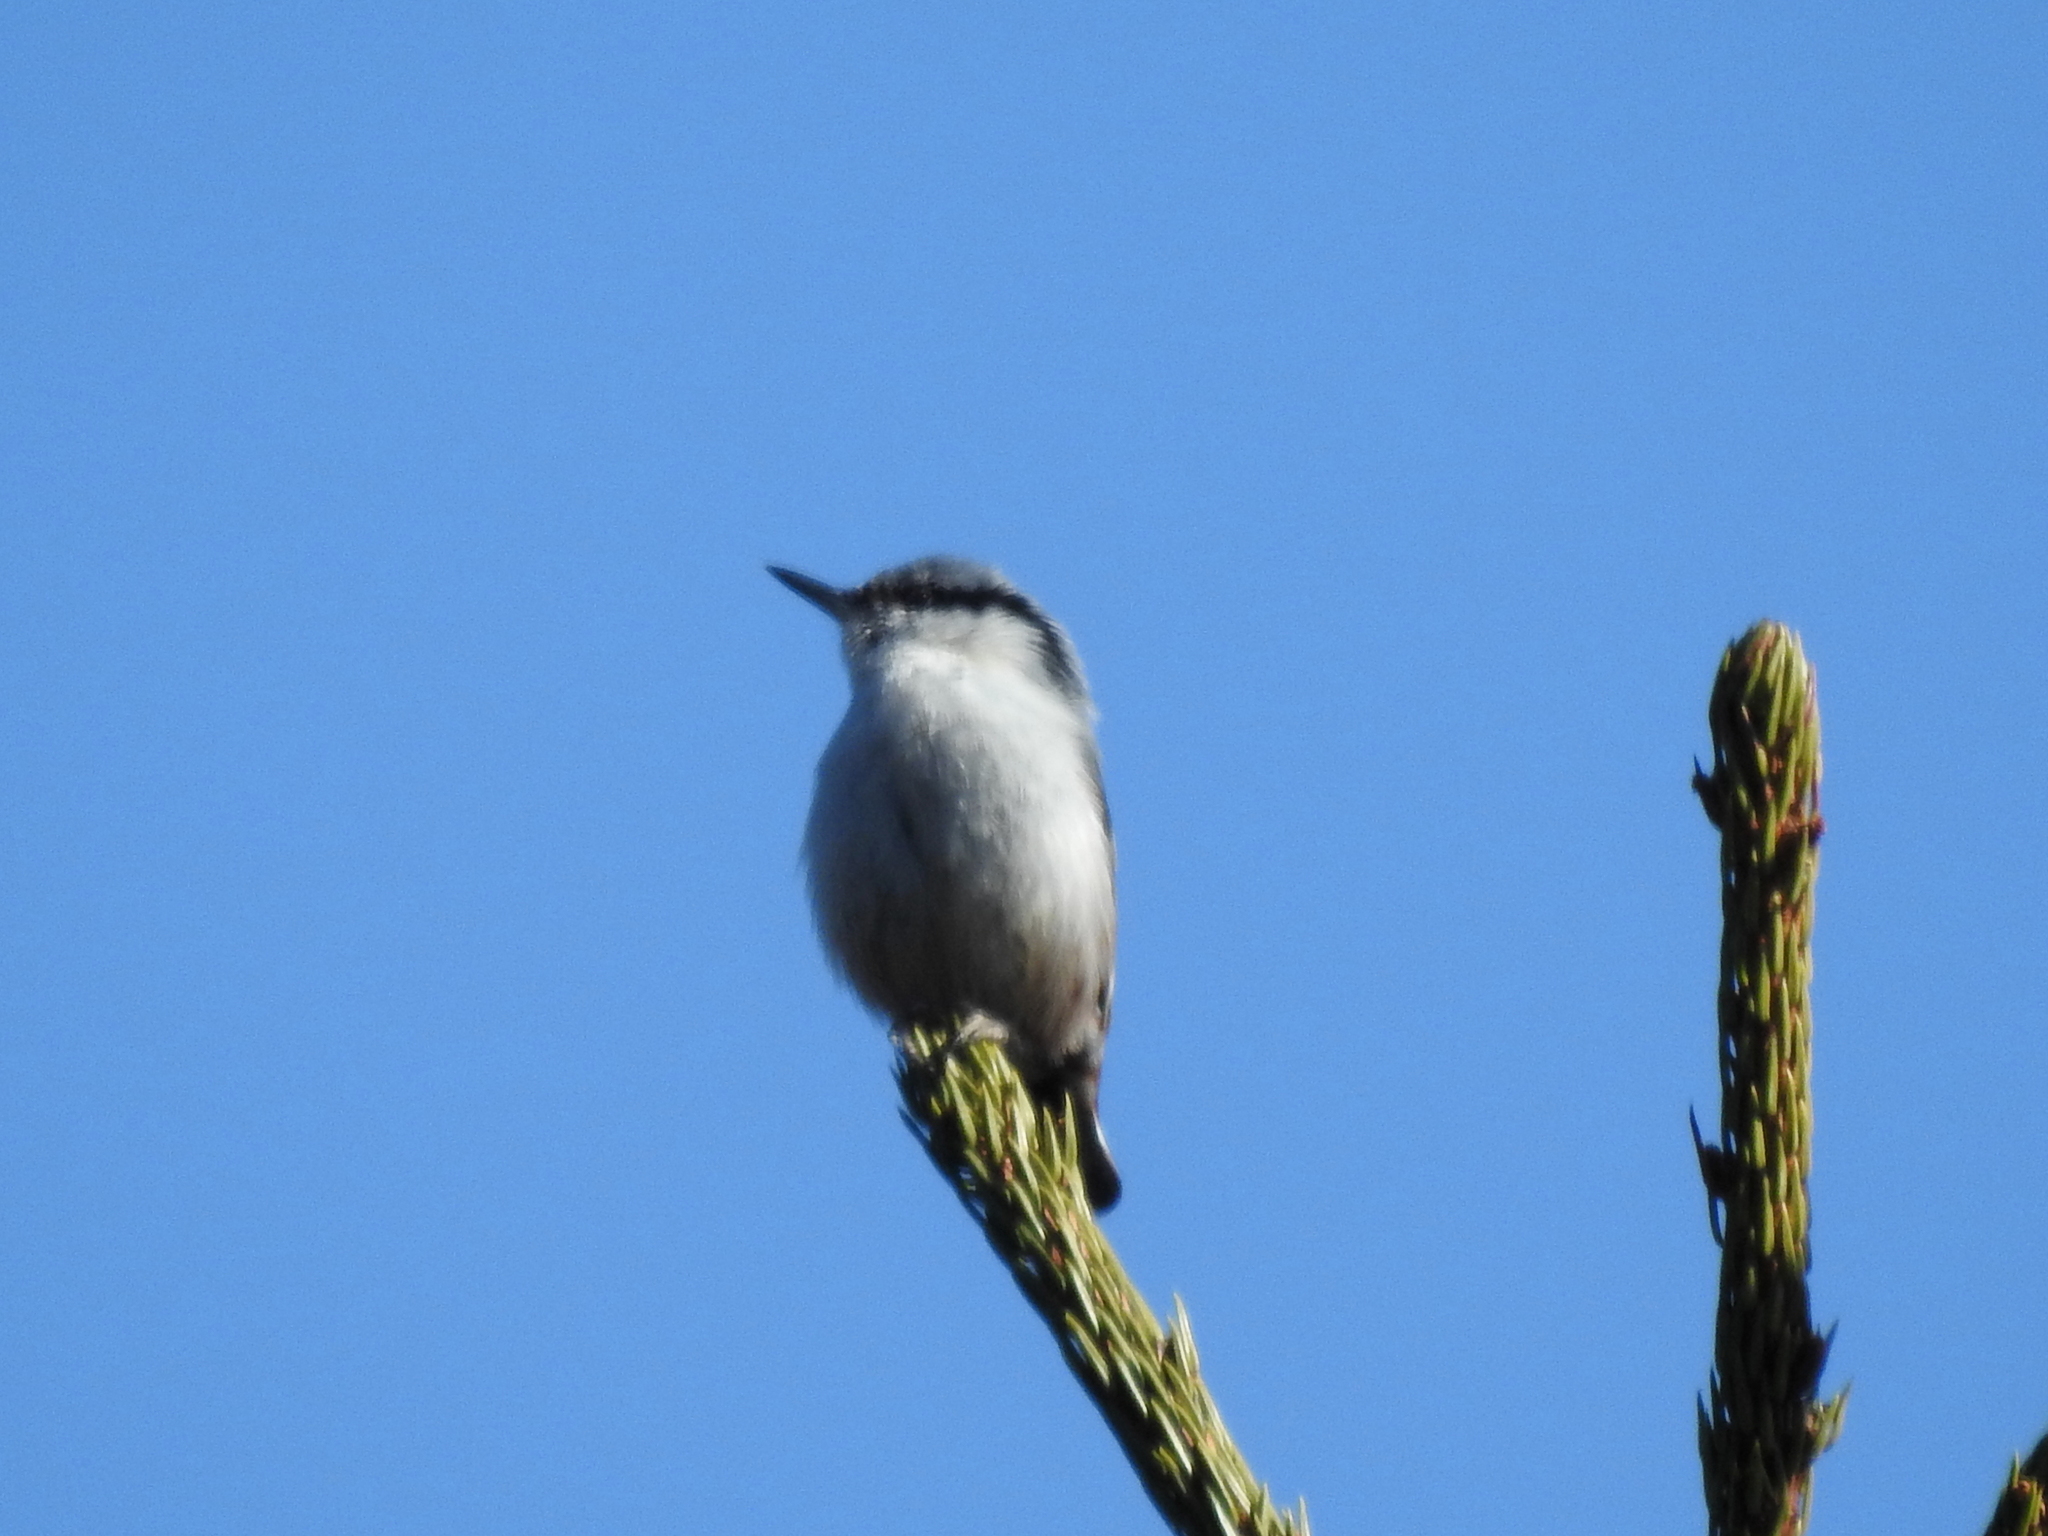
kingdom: Animalia
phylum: Chordata
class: Aves
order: Passeriformes
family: Sittidae
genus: Sitta
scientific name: Sitta europaea
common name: Eurasian nuthatch
